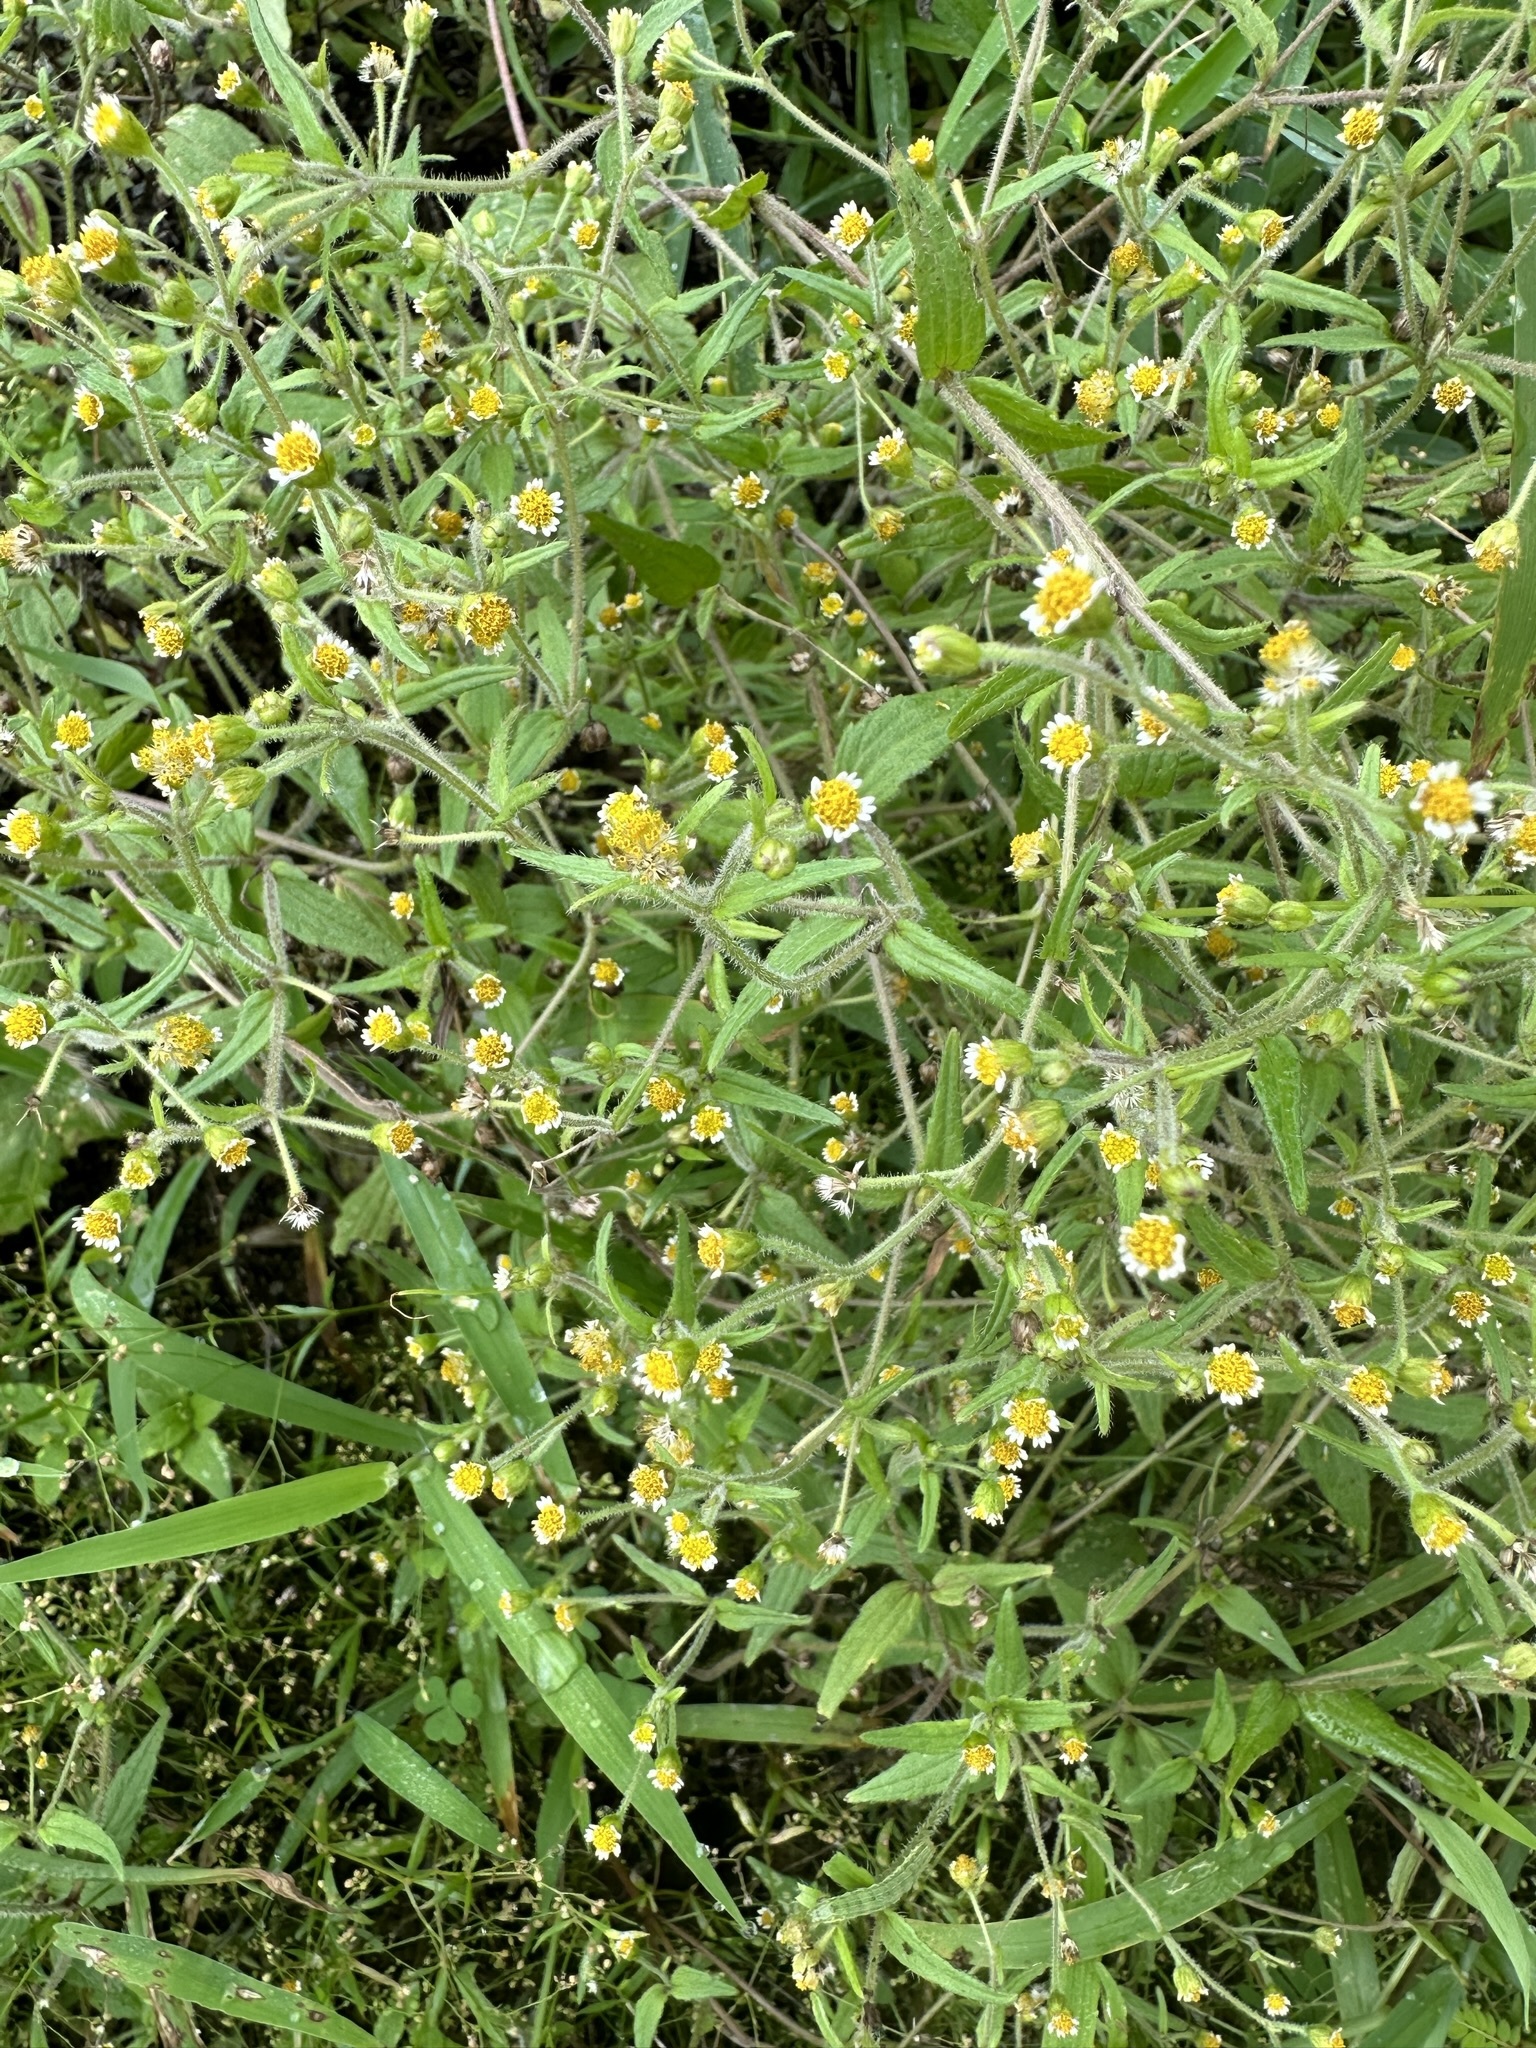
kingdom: Plantae
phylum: Tracheophyta
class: Magnoliopsida
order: Asterales
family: Asteraceae
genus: Galinsoga
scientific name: Galinsoga quadriradiata
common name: Shaggy soldier
